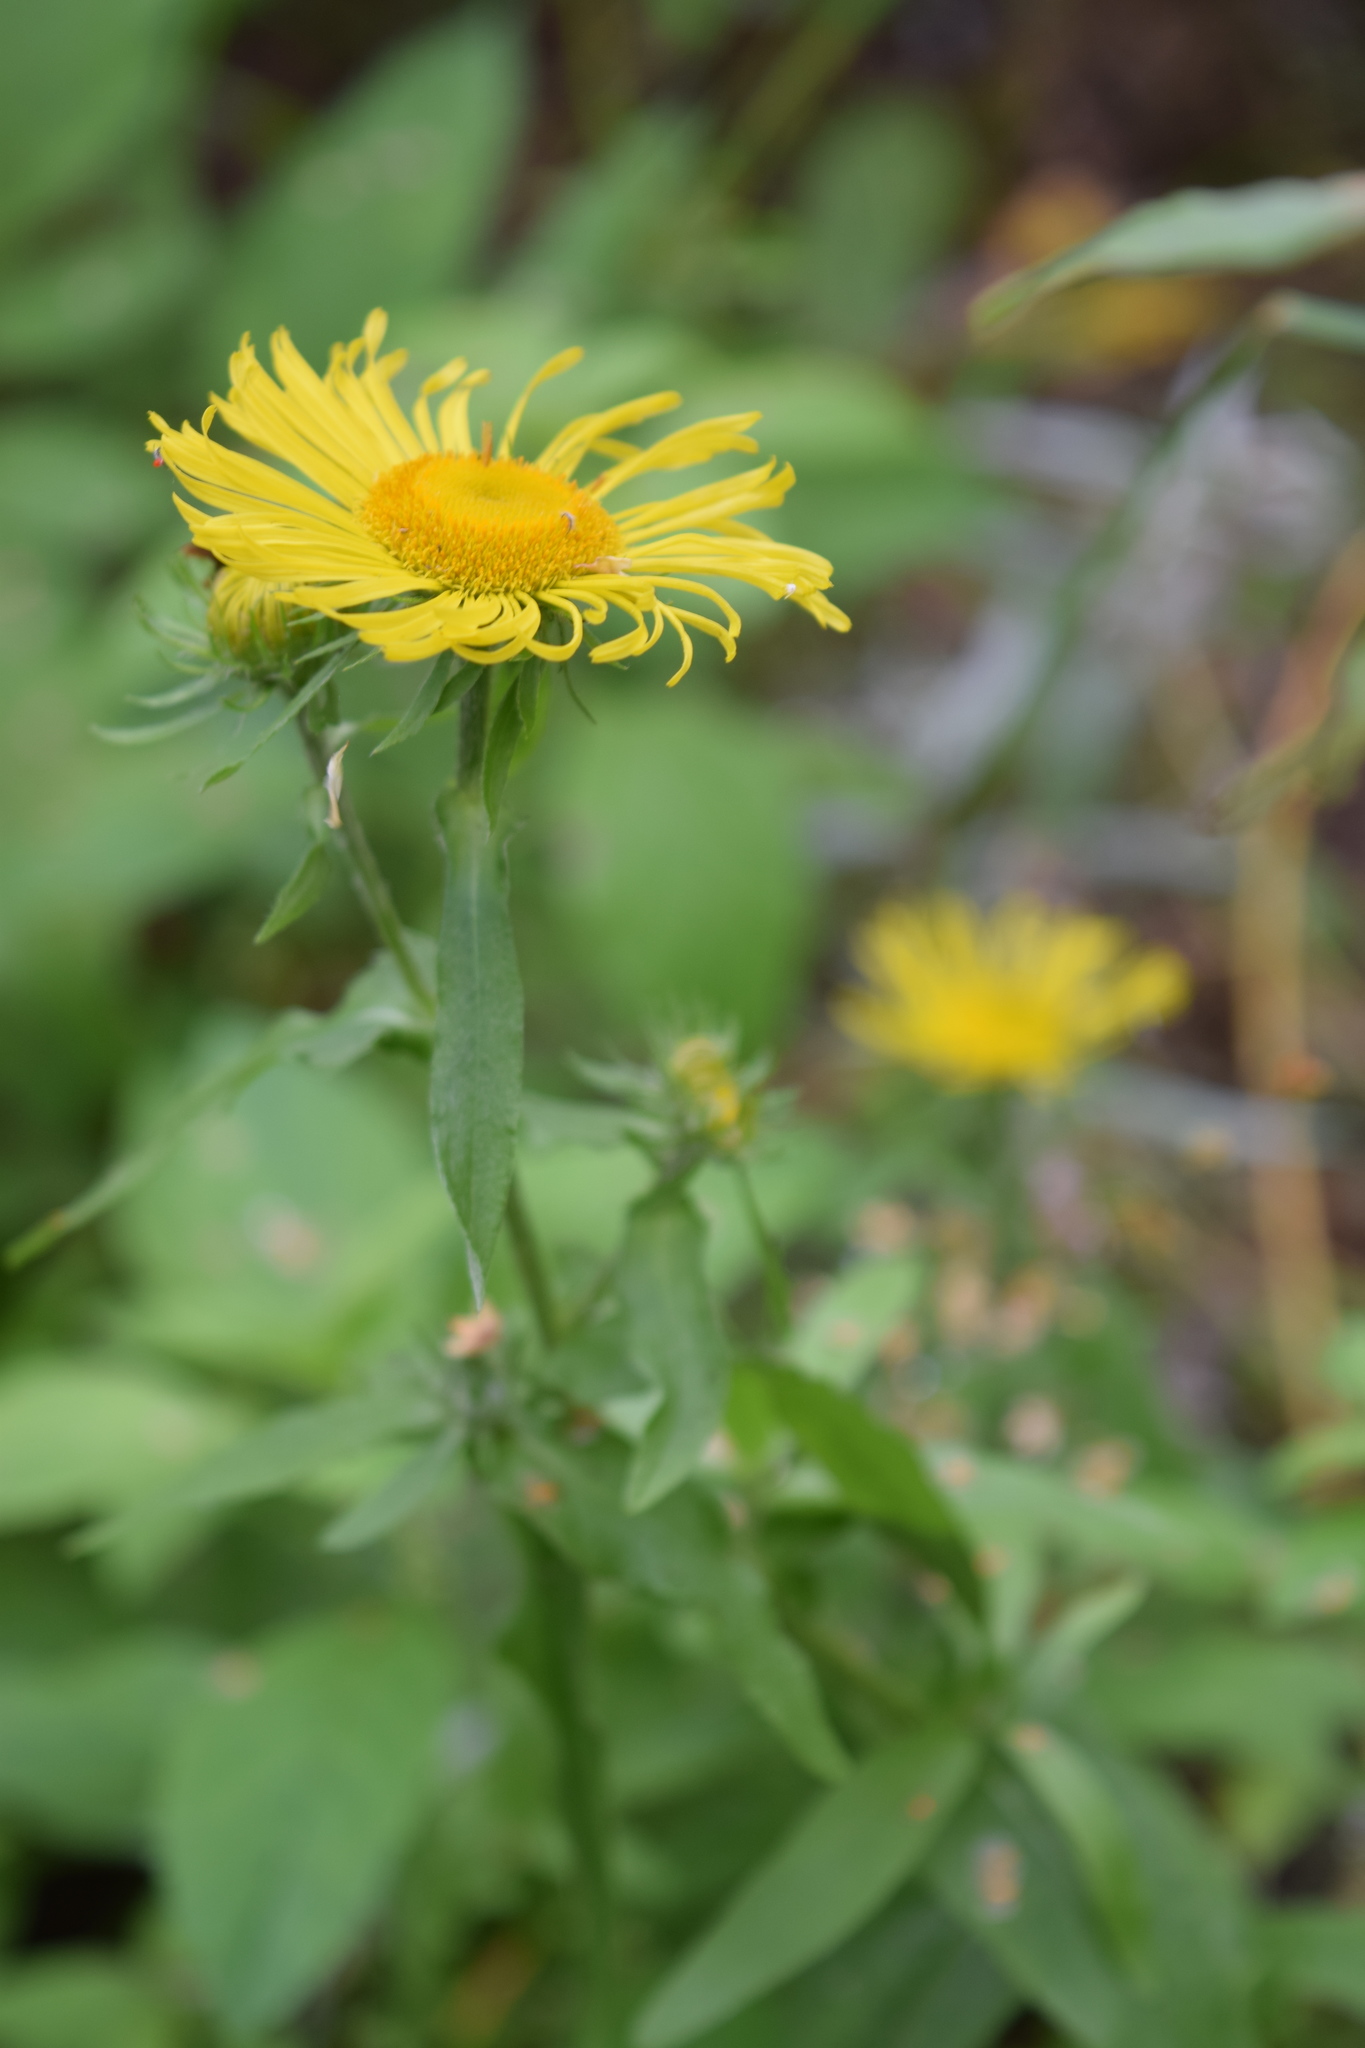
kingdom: Plantae
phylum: Tracheophyta
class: Magnoliopsida
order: Asterales
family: Asteraceae
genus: Pentanema
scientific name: Pentanema britannicum
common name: British elecampane
